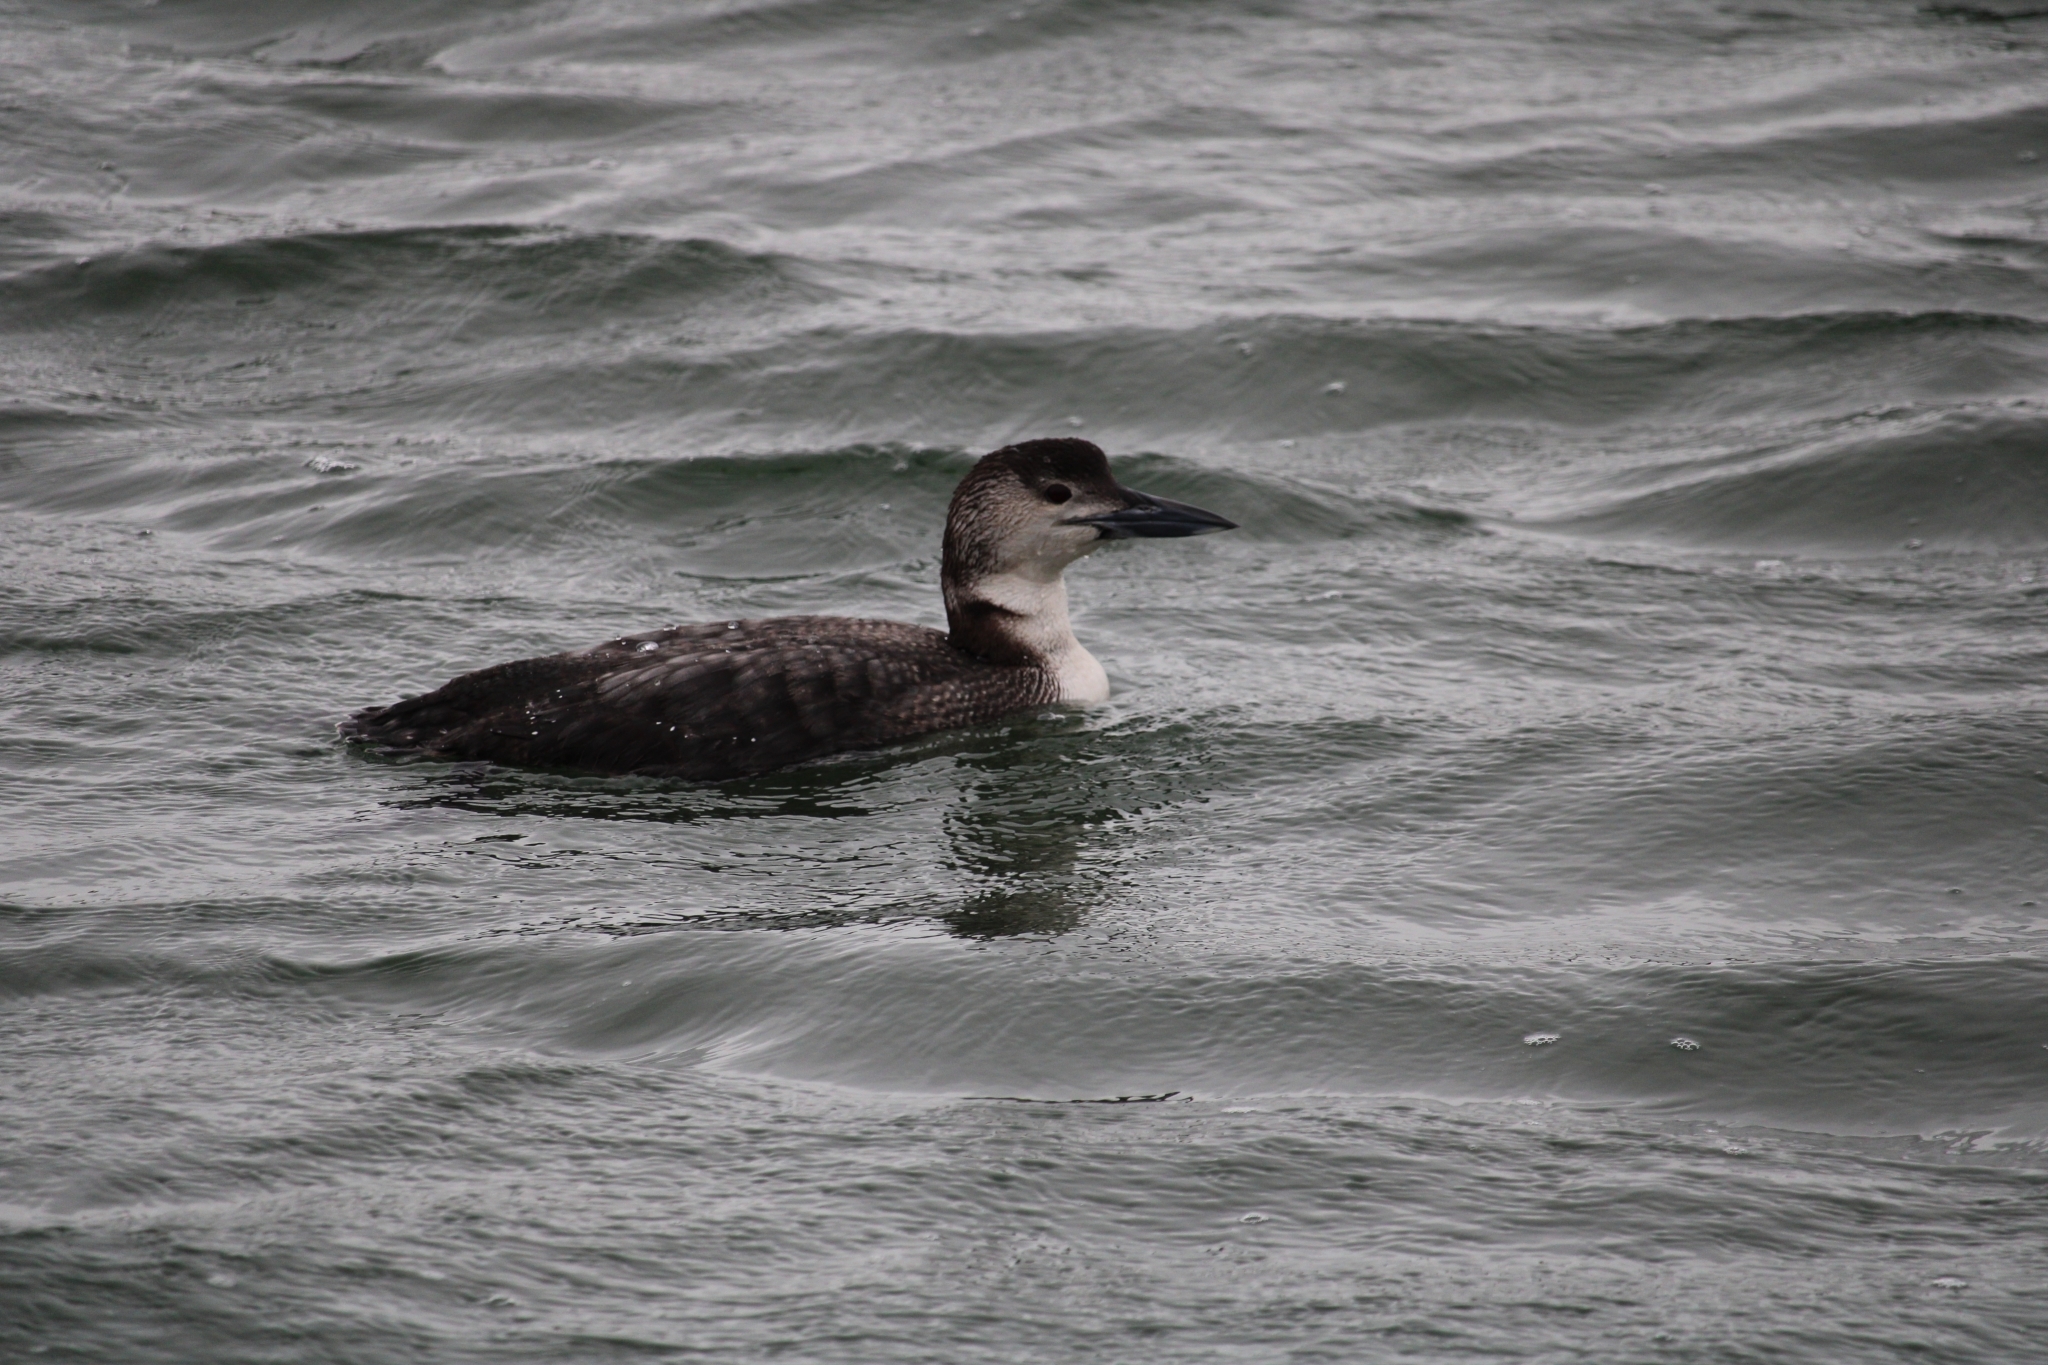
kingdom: Animalia
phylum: Chordata
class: Aves
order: Gaviiformes
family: Gaviidae
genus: Gavia
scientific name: Gavia immer
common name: Common loon
